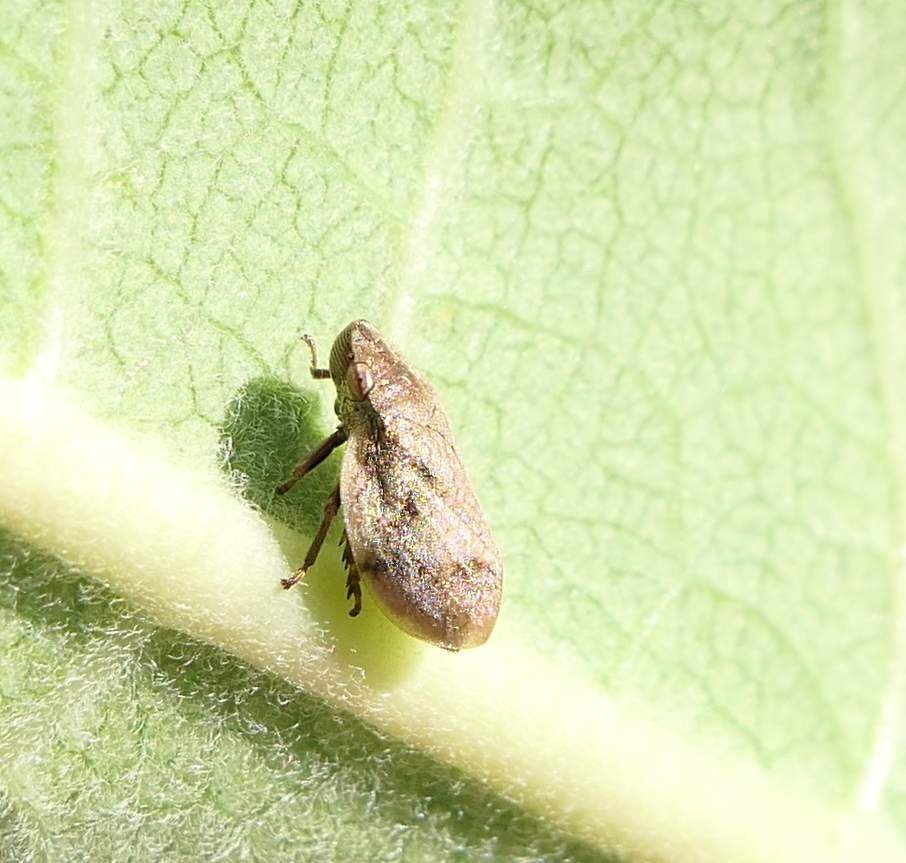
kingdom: Animalia
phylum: Arthropoda
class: Insecta
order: Hemiptera
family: Aphrophoridae
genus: Lepyronia
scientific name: Lepyronia coleoptrata
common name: Leafhopper
